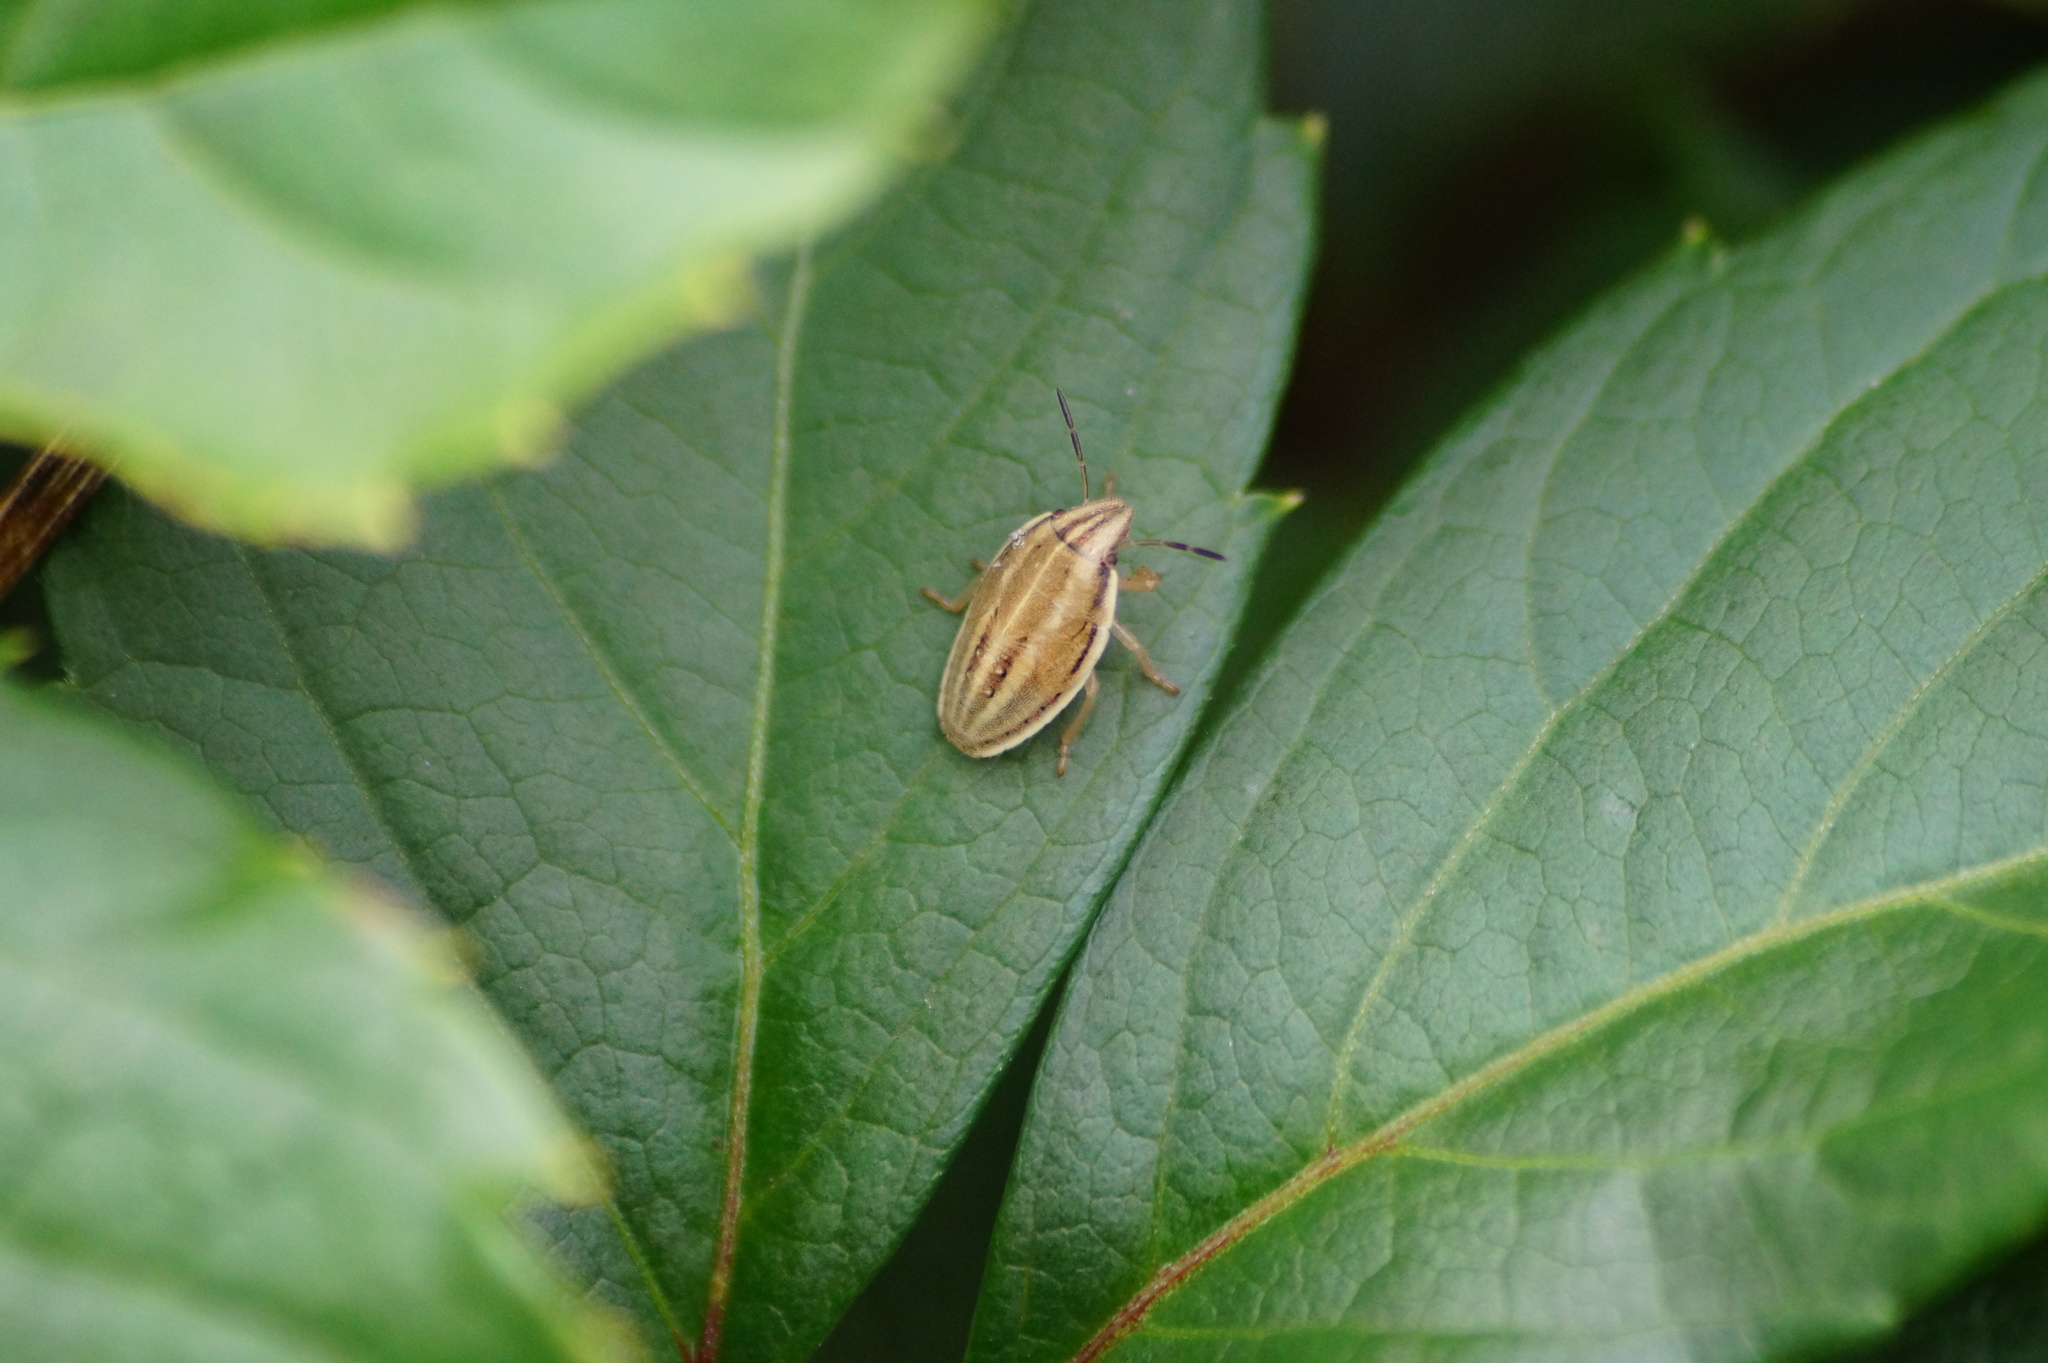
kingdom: Animalia
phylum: Arthropoda
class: Insecta
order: Hemiptera
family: Pentatomidae
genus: Aelia
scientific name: Aelia acuminata
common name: Bishop's mitre
